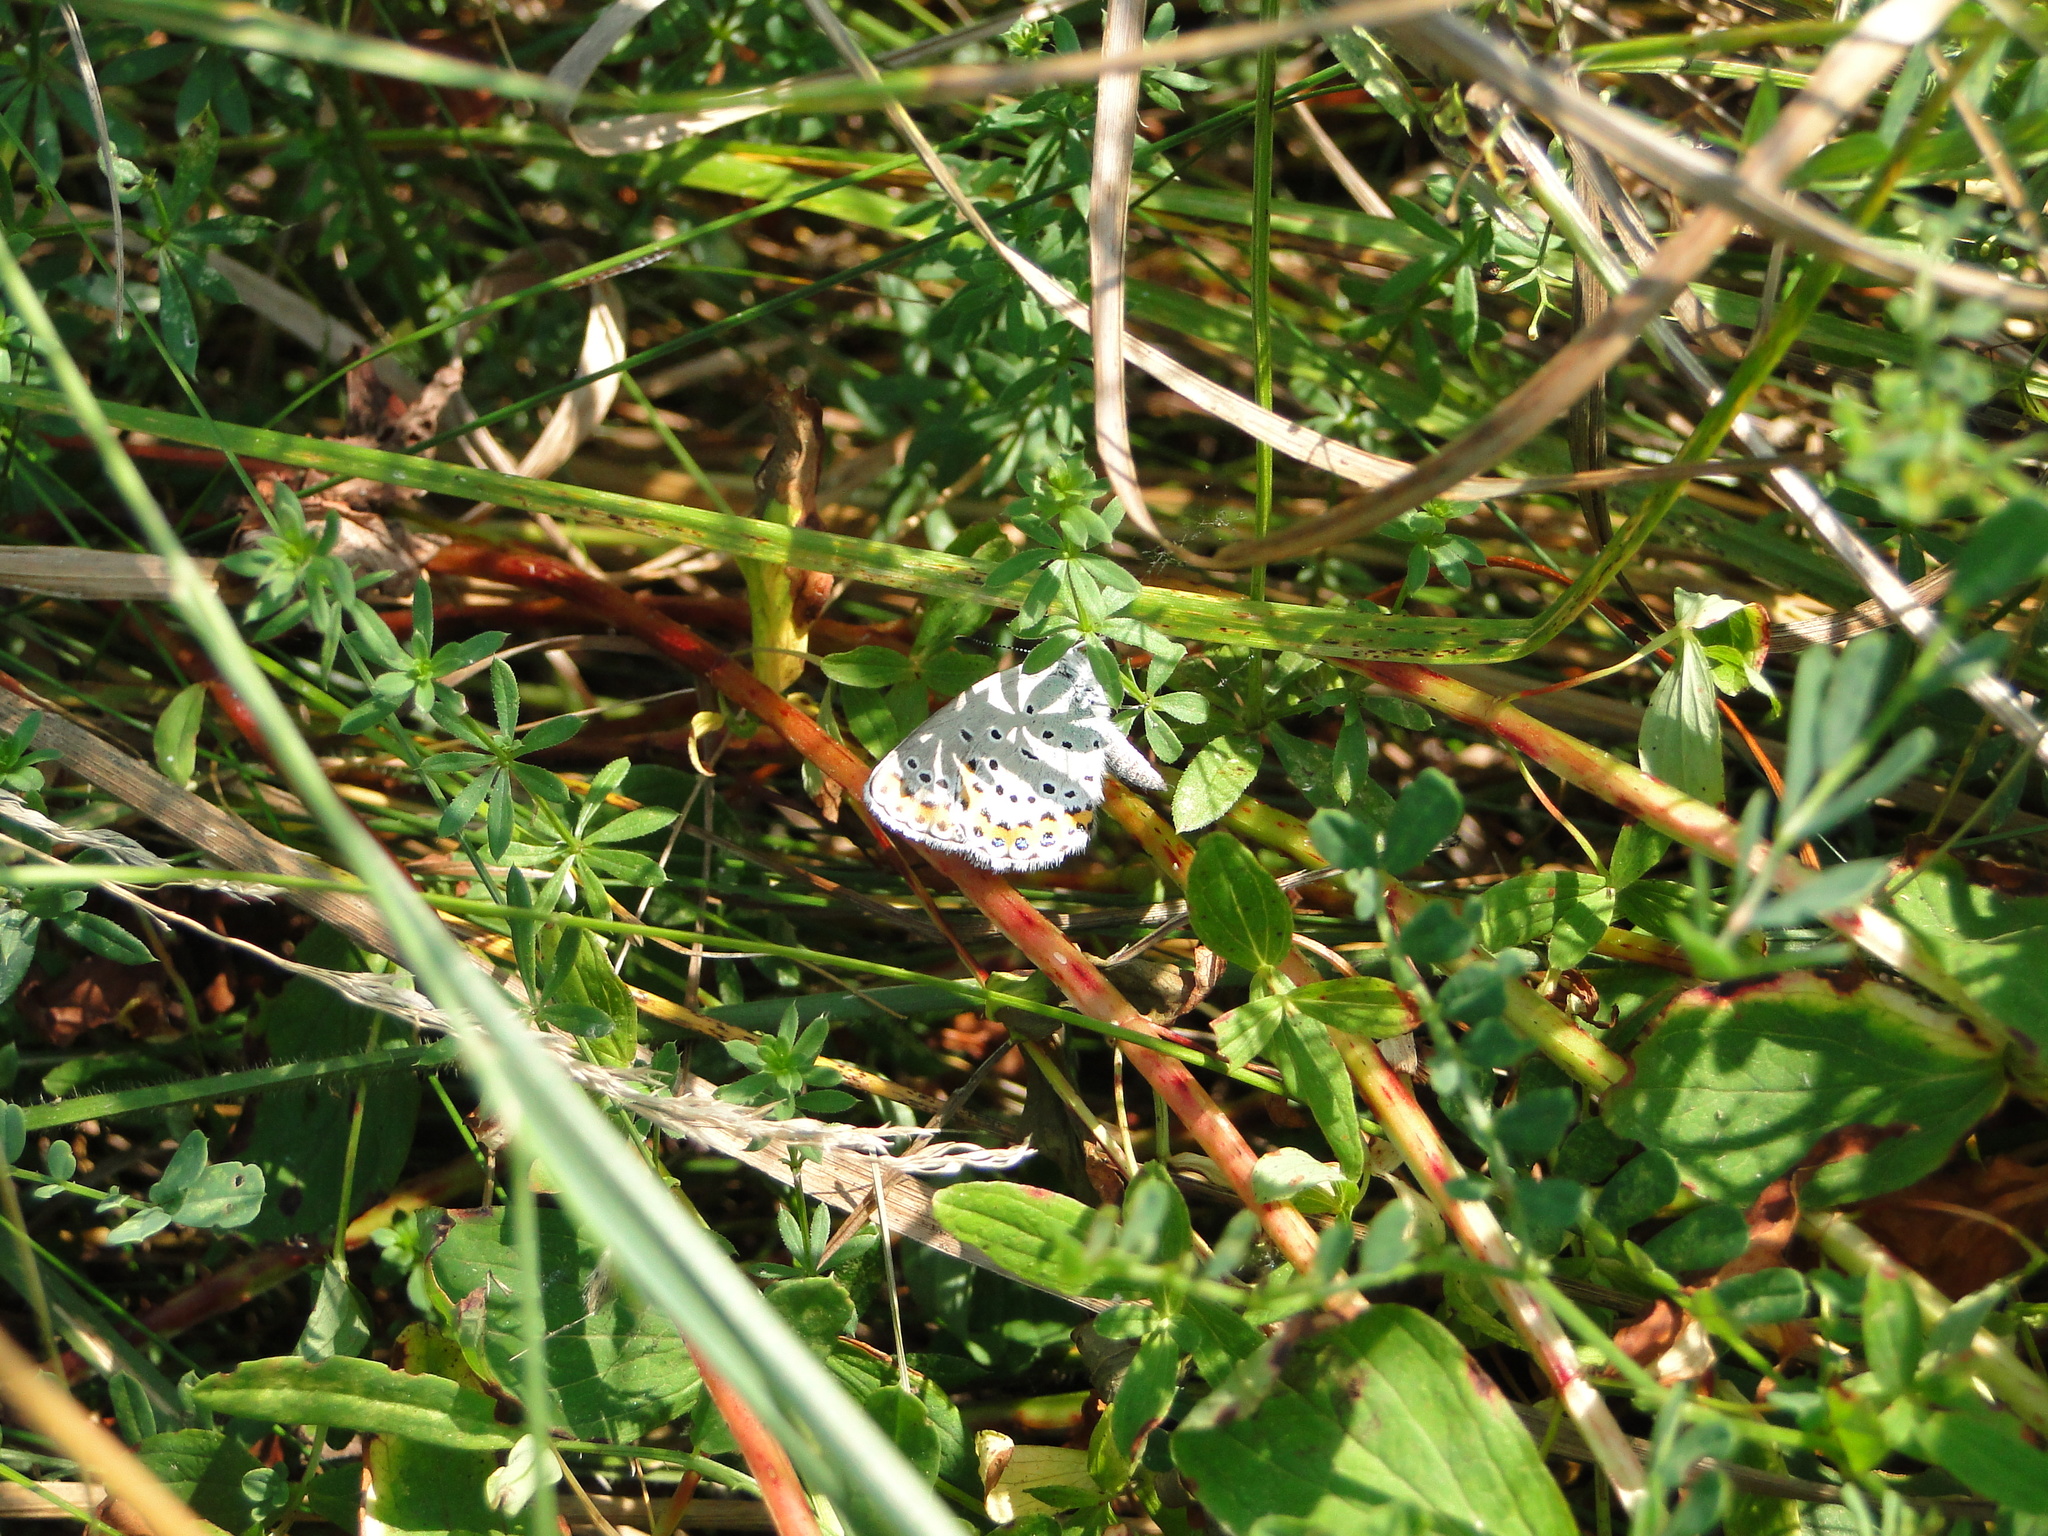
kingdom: Animalia
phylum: Arthropoda
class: Insecta
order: Lepidoptera
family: Lycaenidae
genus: Plebejus
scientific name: Plebejus argyrognomon
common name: Reverdin's blue
